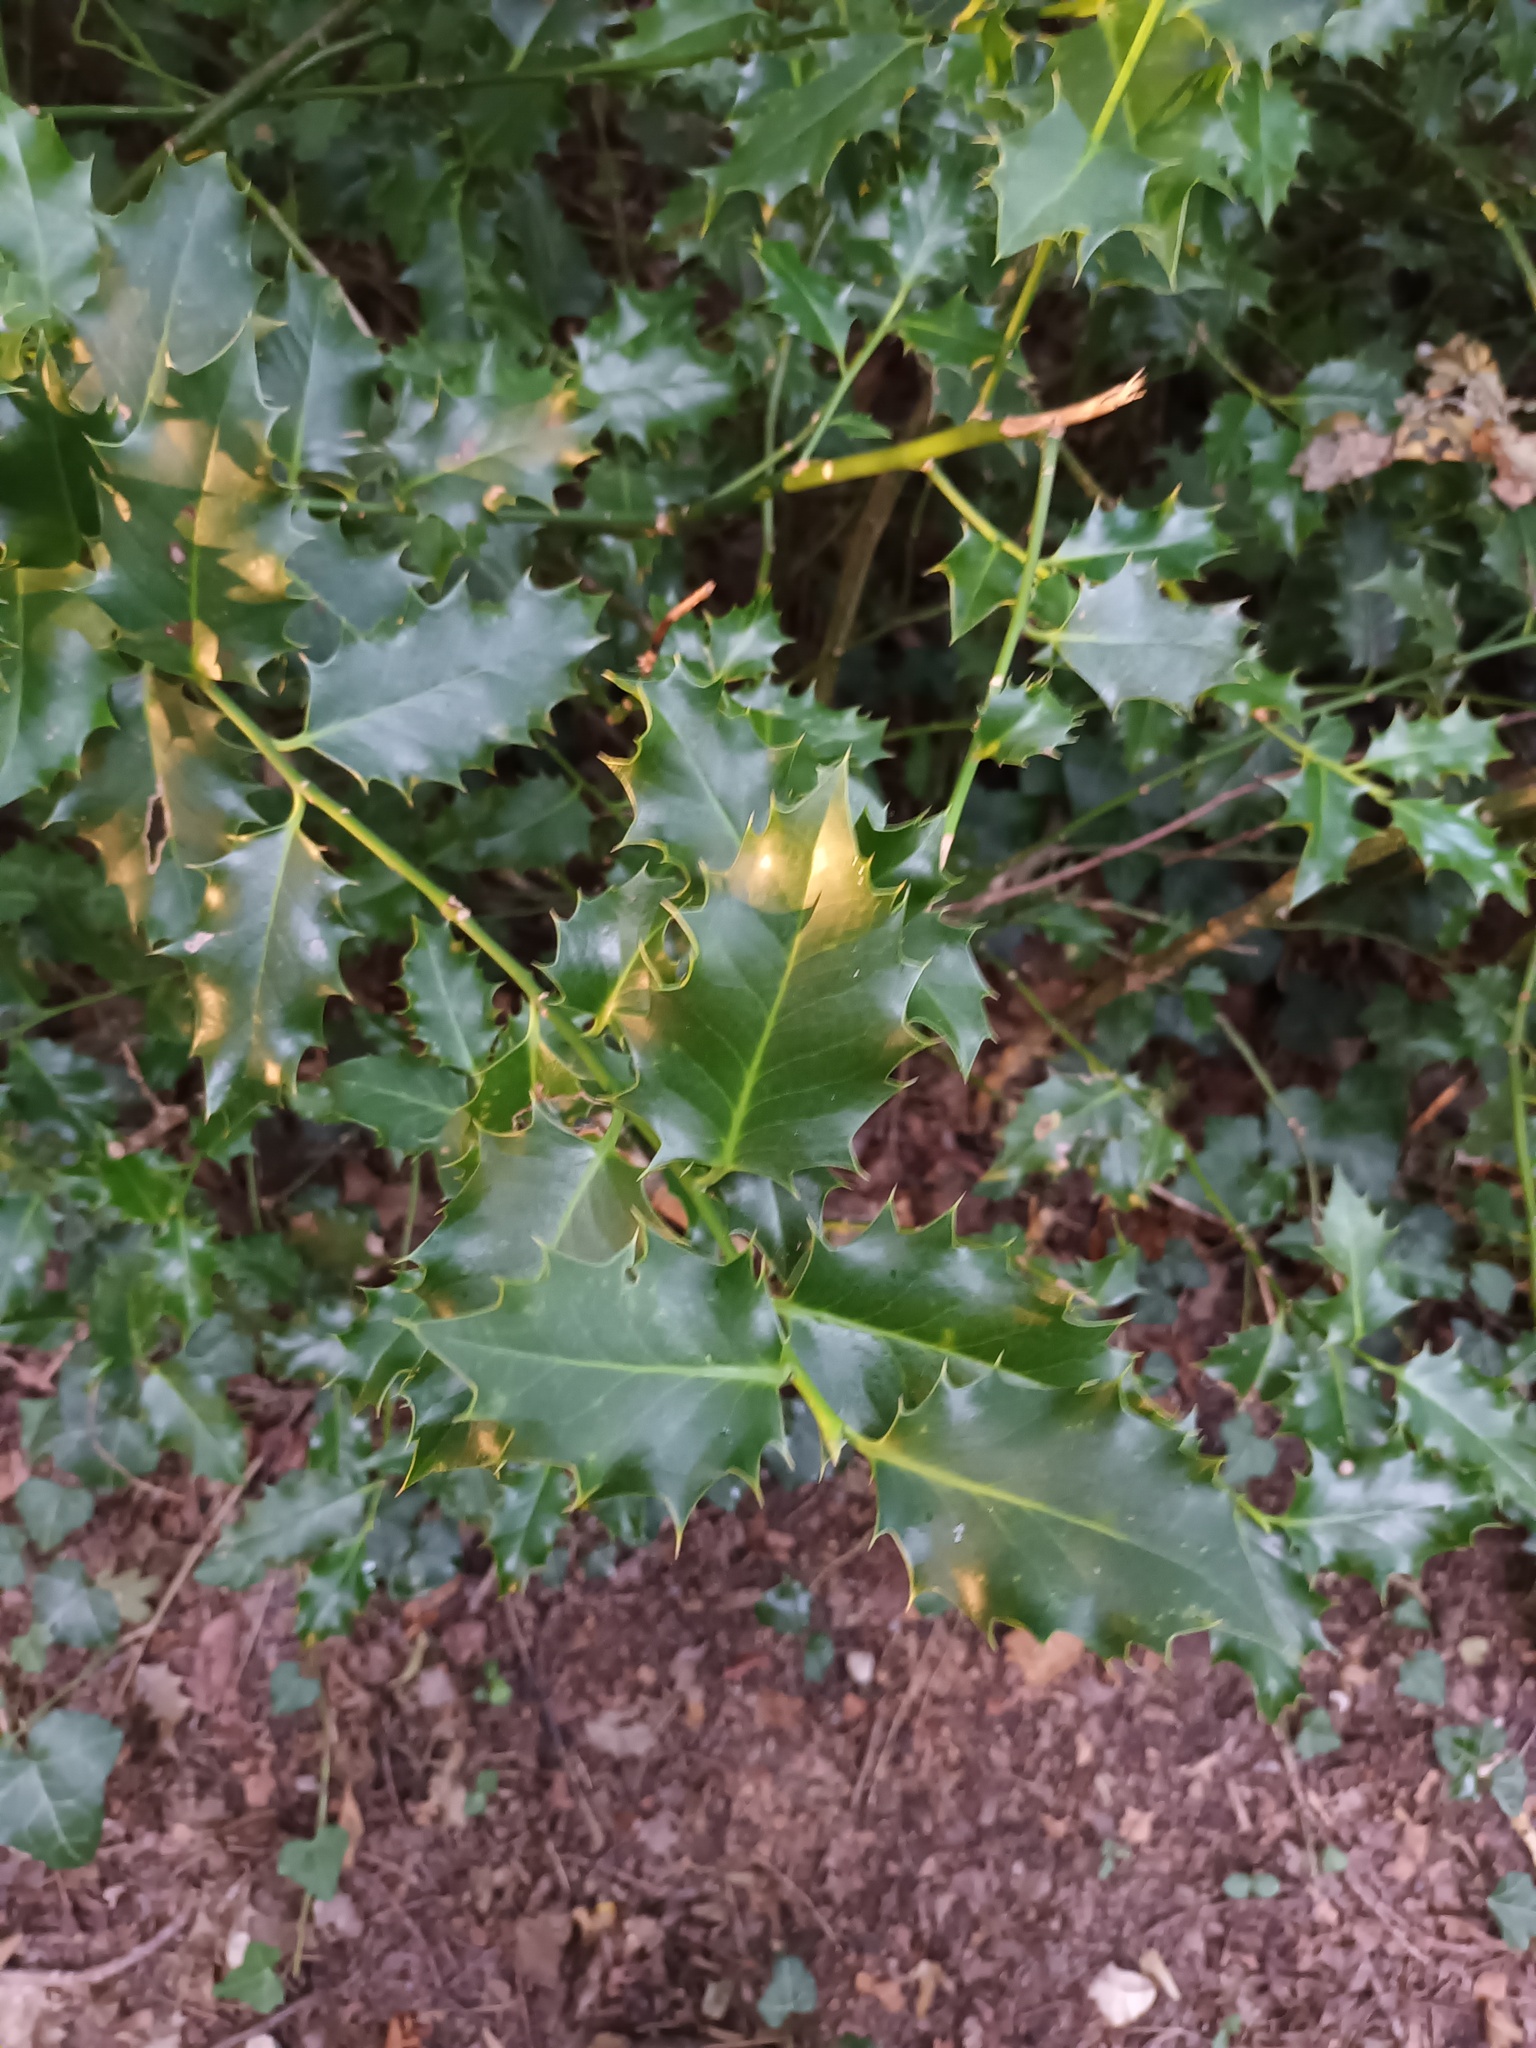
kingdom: Plantae
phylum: Tracheophyta
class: Magnoliopsida
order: Aquifoliales
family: Aquifoliaceae
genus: Ilex
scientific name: Ilex aquifolium
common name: English holly
